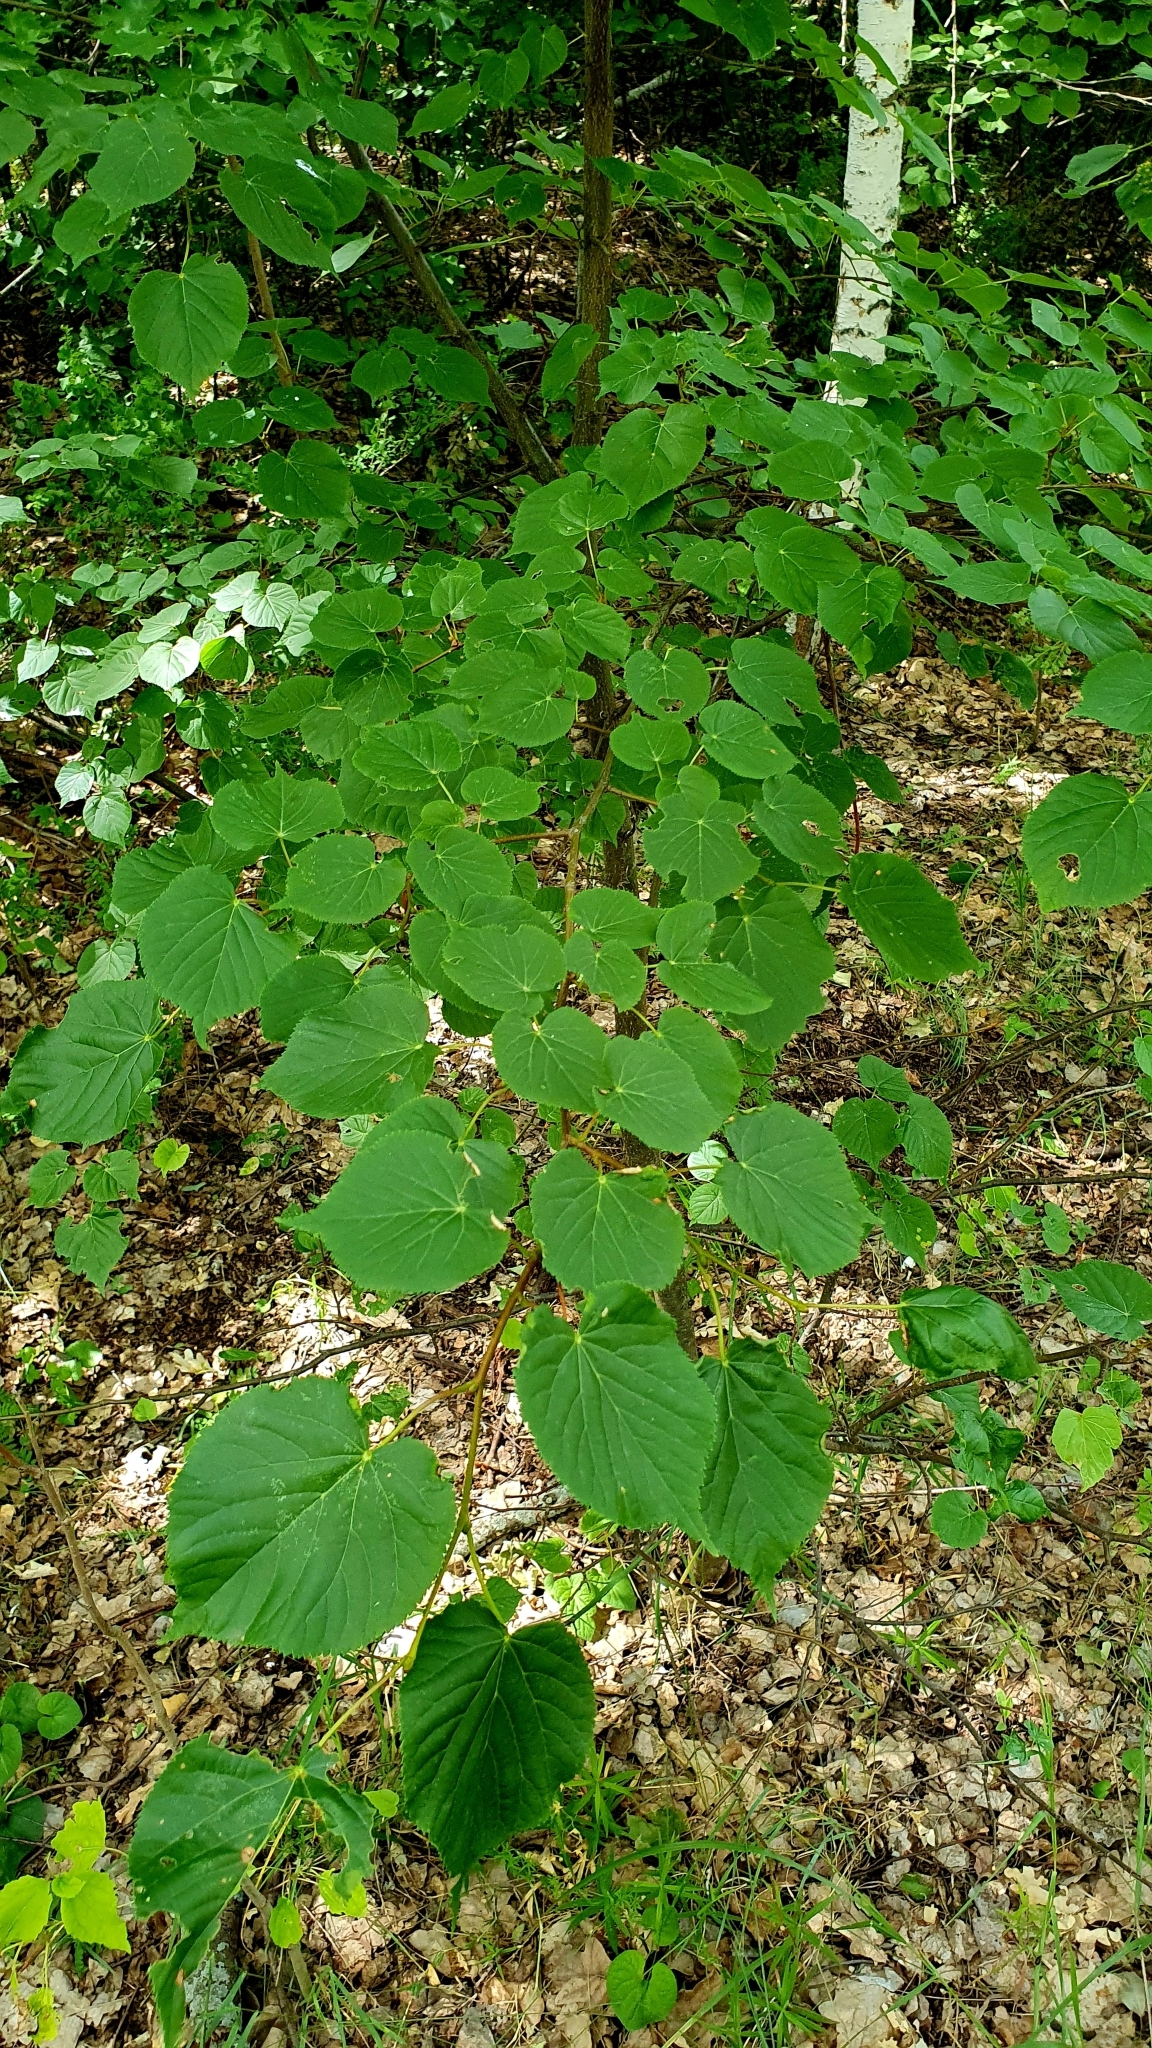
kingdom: Plantae
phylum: Tracheophyta
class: Magnoliopsida
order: Malvales
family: Malvaceae
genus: Tilia
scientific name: Tilia cordata
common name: Small-leaved lime
